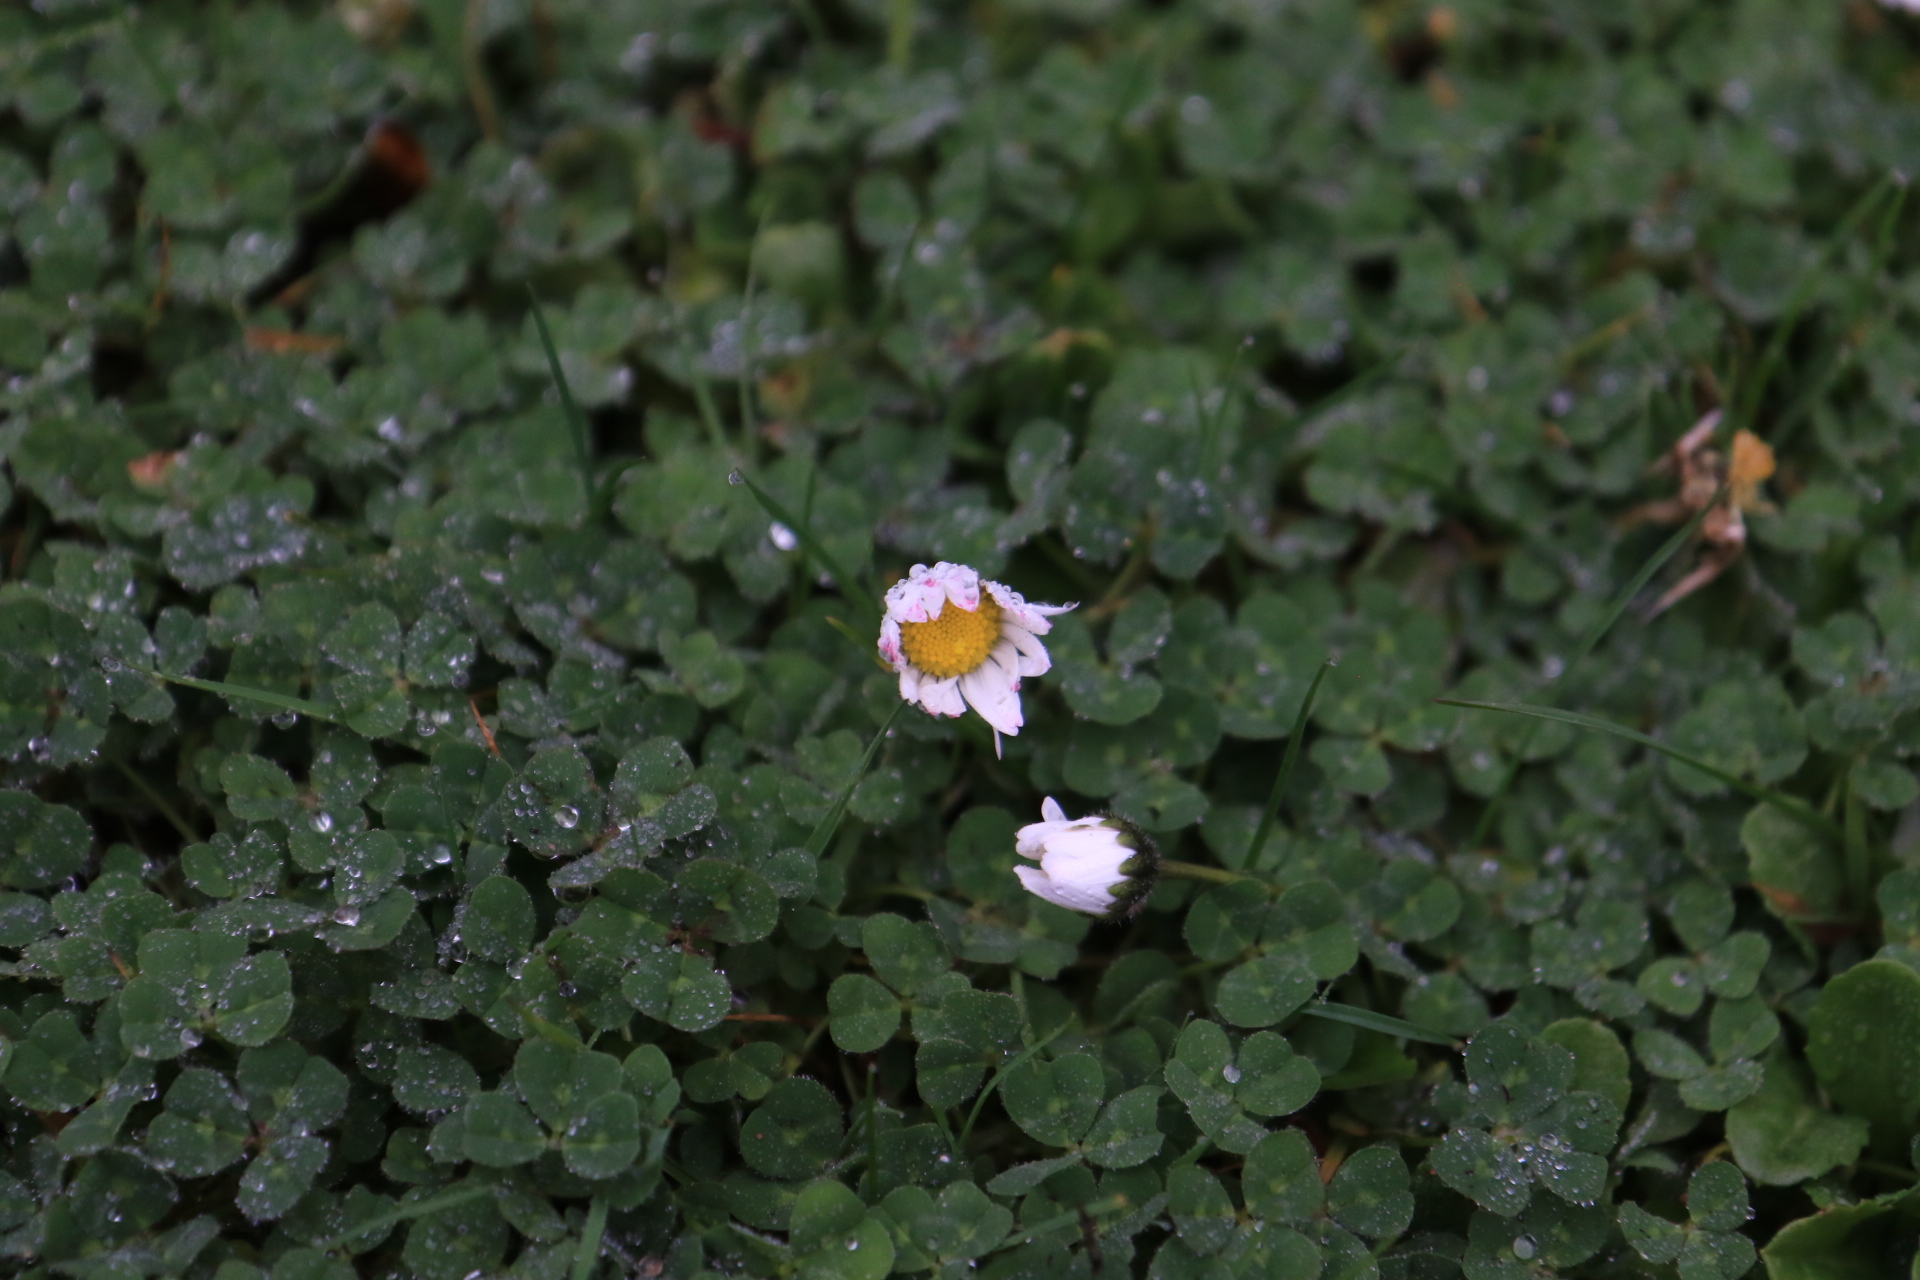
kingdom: Plantae
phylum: Tracheophyta
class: Magnoliopsida
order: Asterales
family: Asteraceae
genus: Bellis
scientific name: Bellis perennis
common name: Lawndaisy
